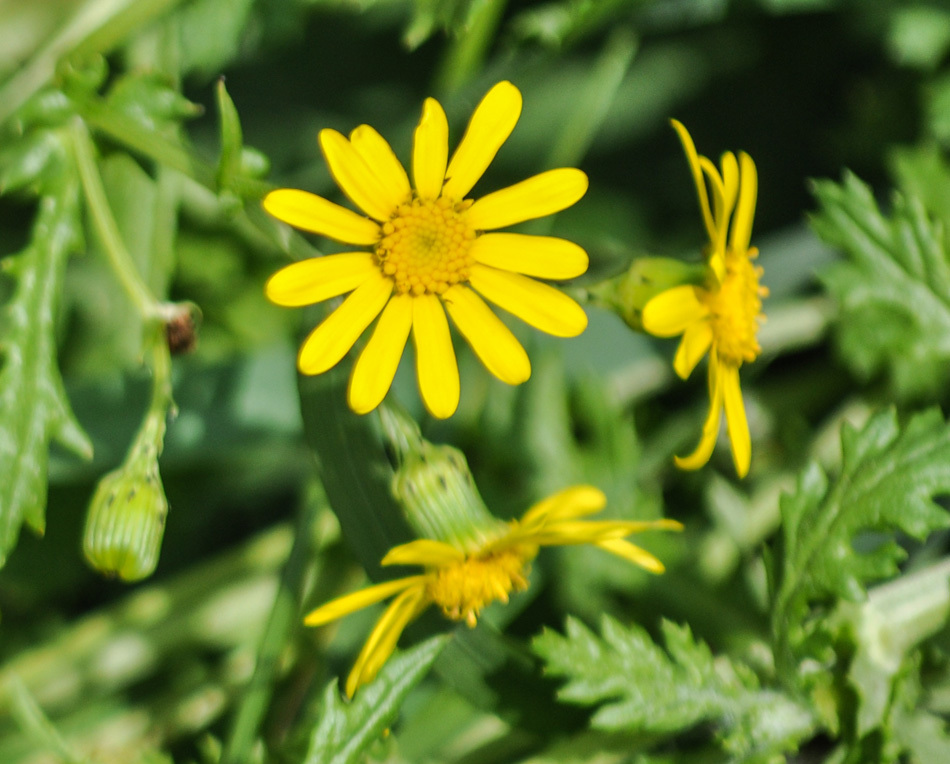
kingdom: Plantae
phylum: Tracheophyta
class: Magnoliopsida
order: Asterales
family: Asteraceae
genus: Senecio
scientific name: Senecio rupestris
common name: Rock ragwort
